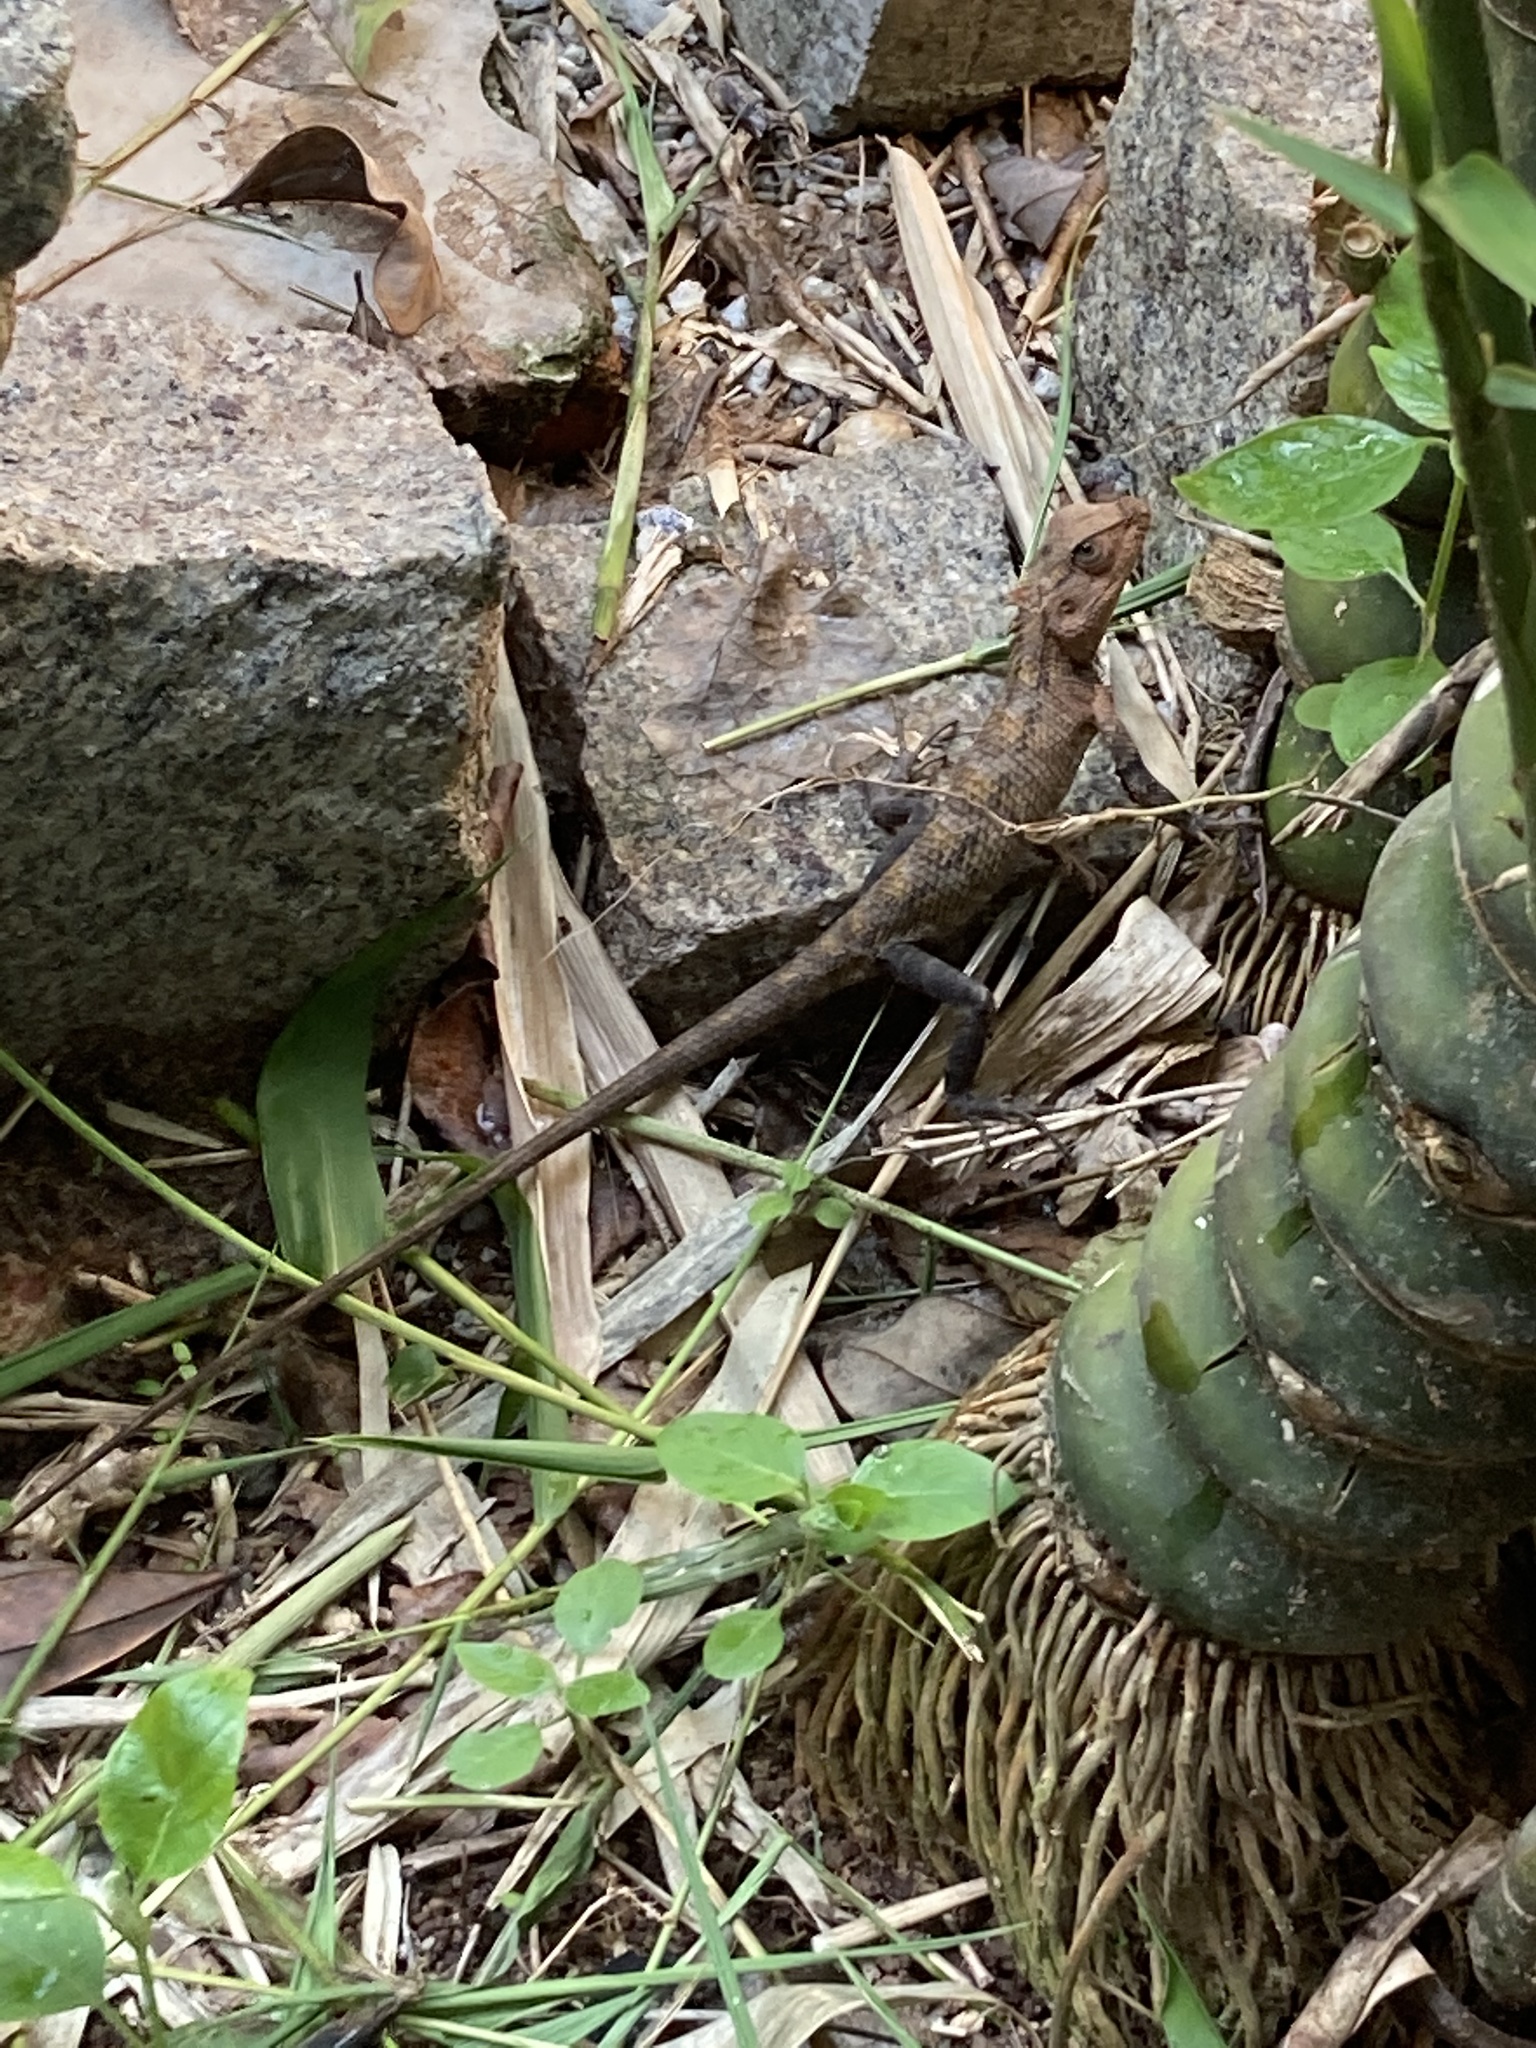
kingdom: Animalia
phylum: Chordata
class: Squamata
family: Agamidae
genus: Calotes
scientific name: Calotes versicolor
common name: Oriental garden lizard
